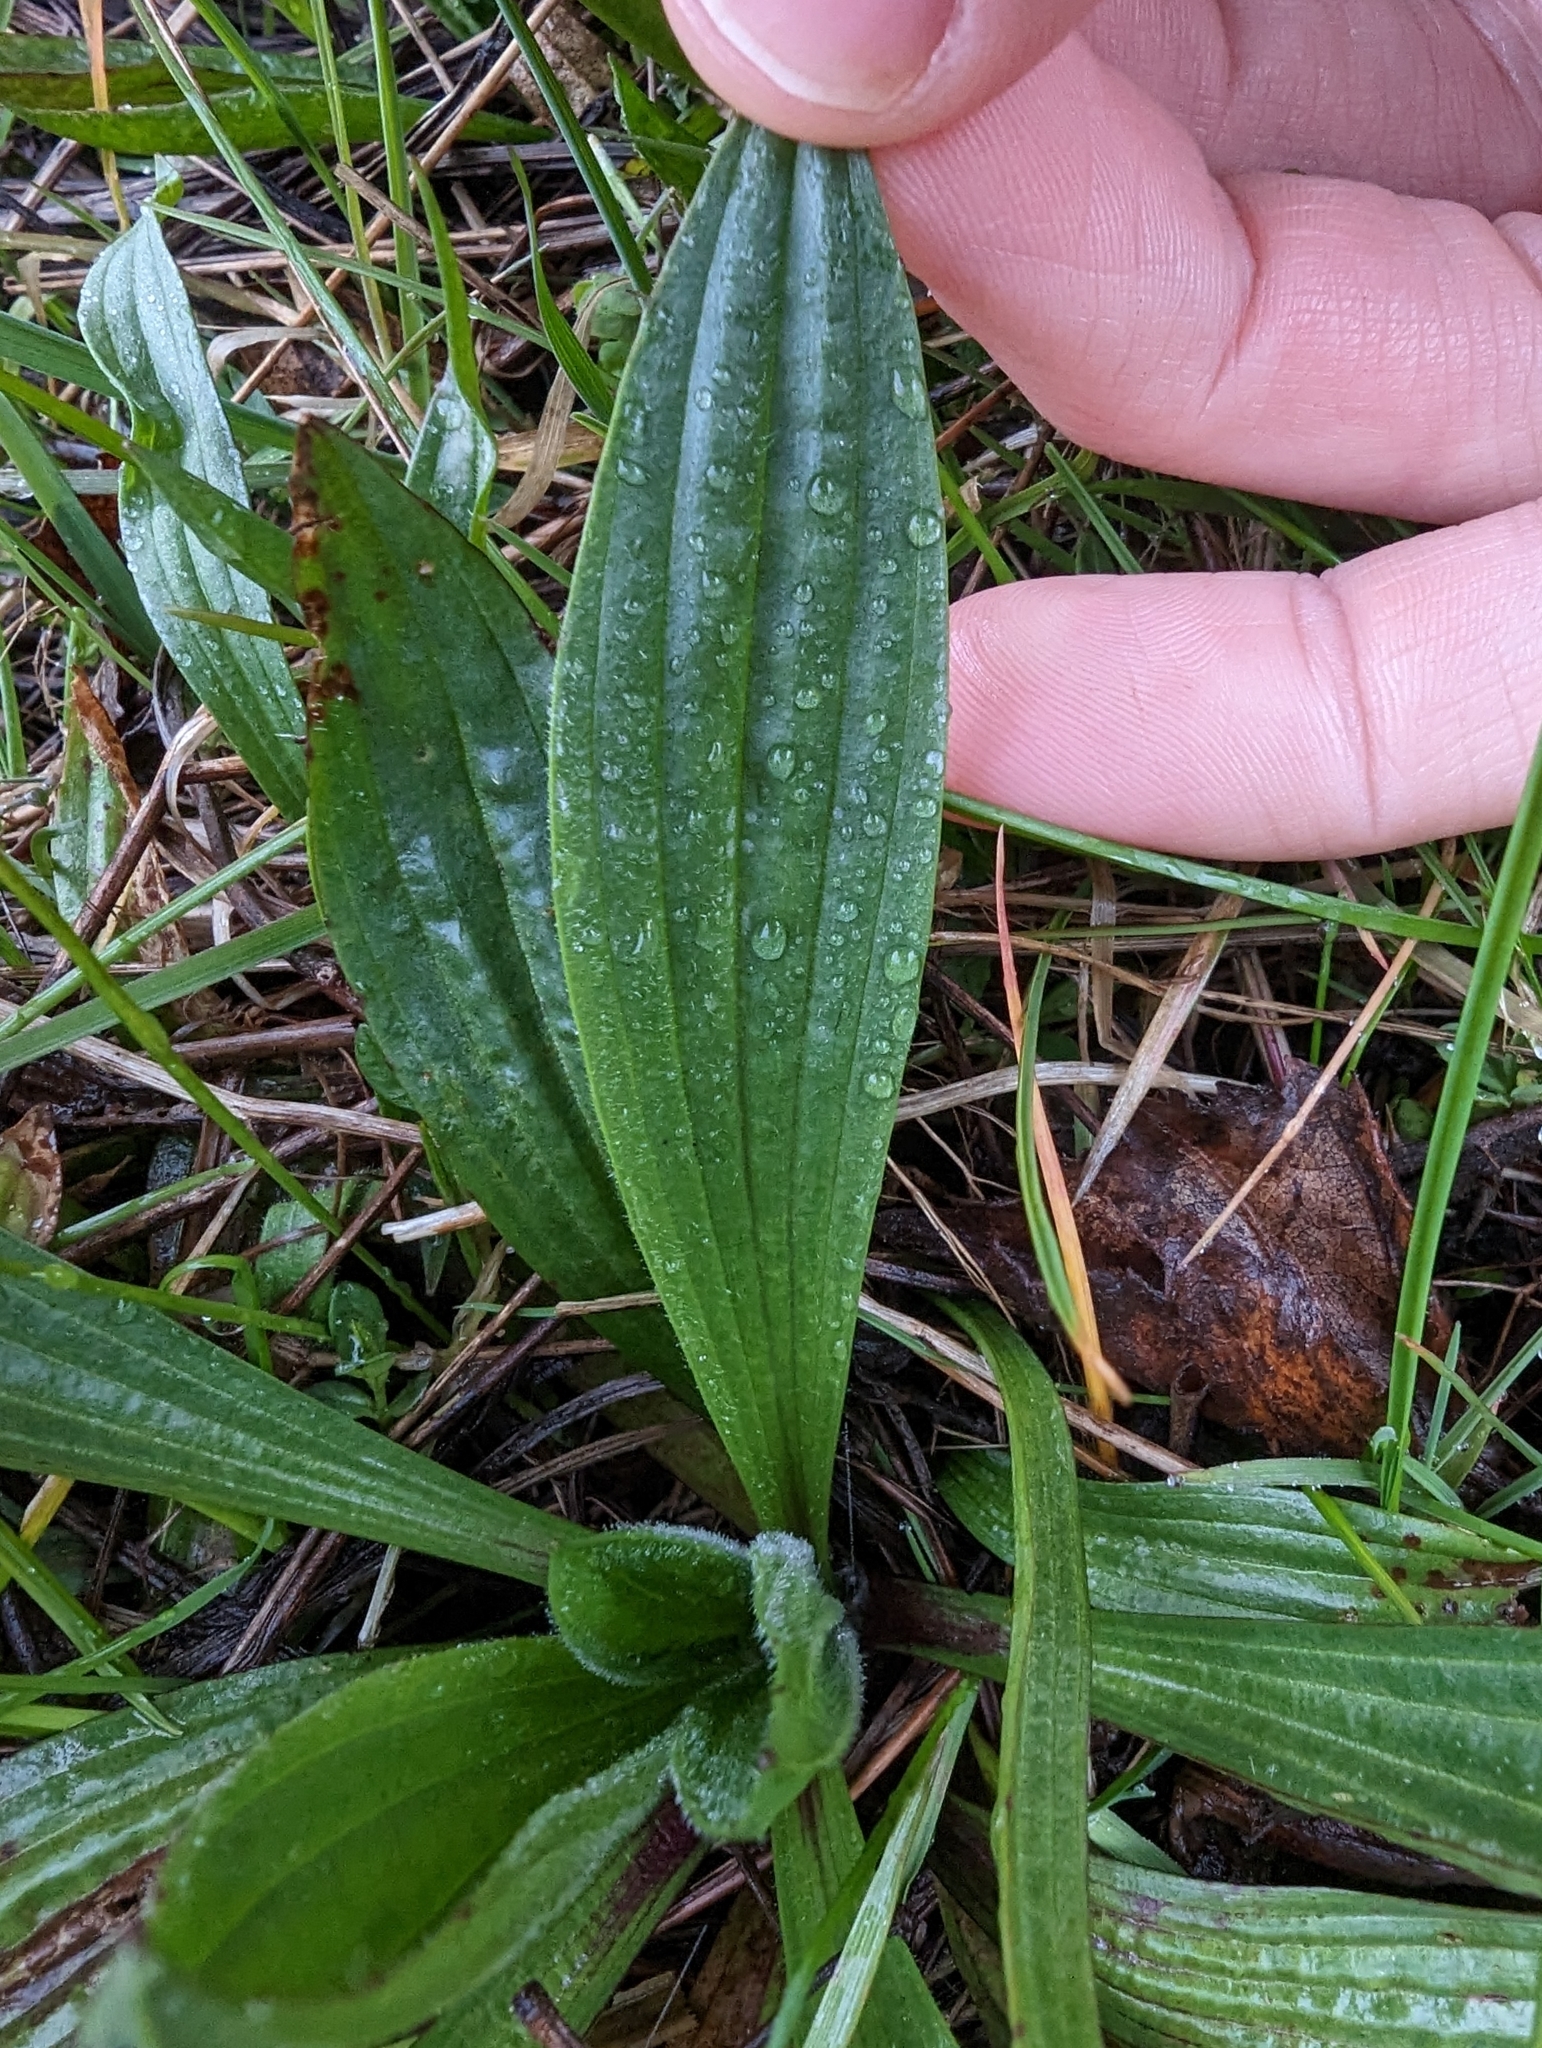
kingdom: Plantae
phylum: Tracheophyta
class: Magnoliopsida
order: Lamiales
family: Plantaginaceae
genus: Plantago
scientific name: Plantago lanceolata
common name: Ribwort plantain
